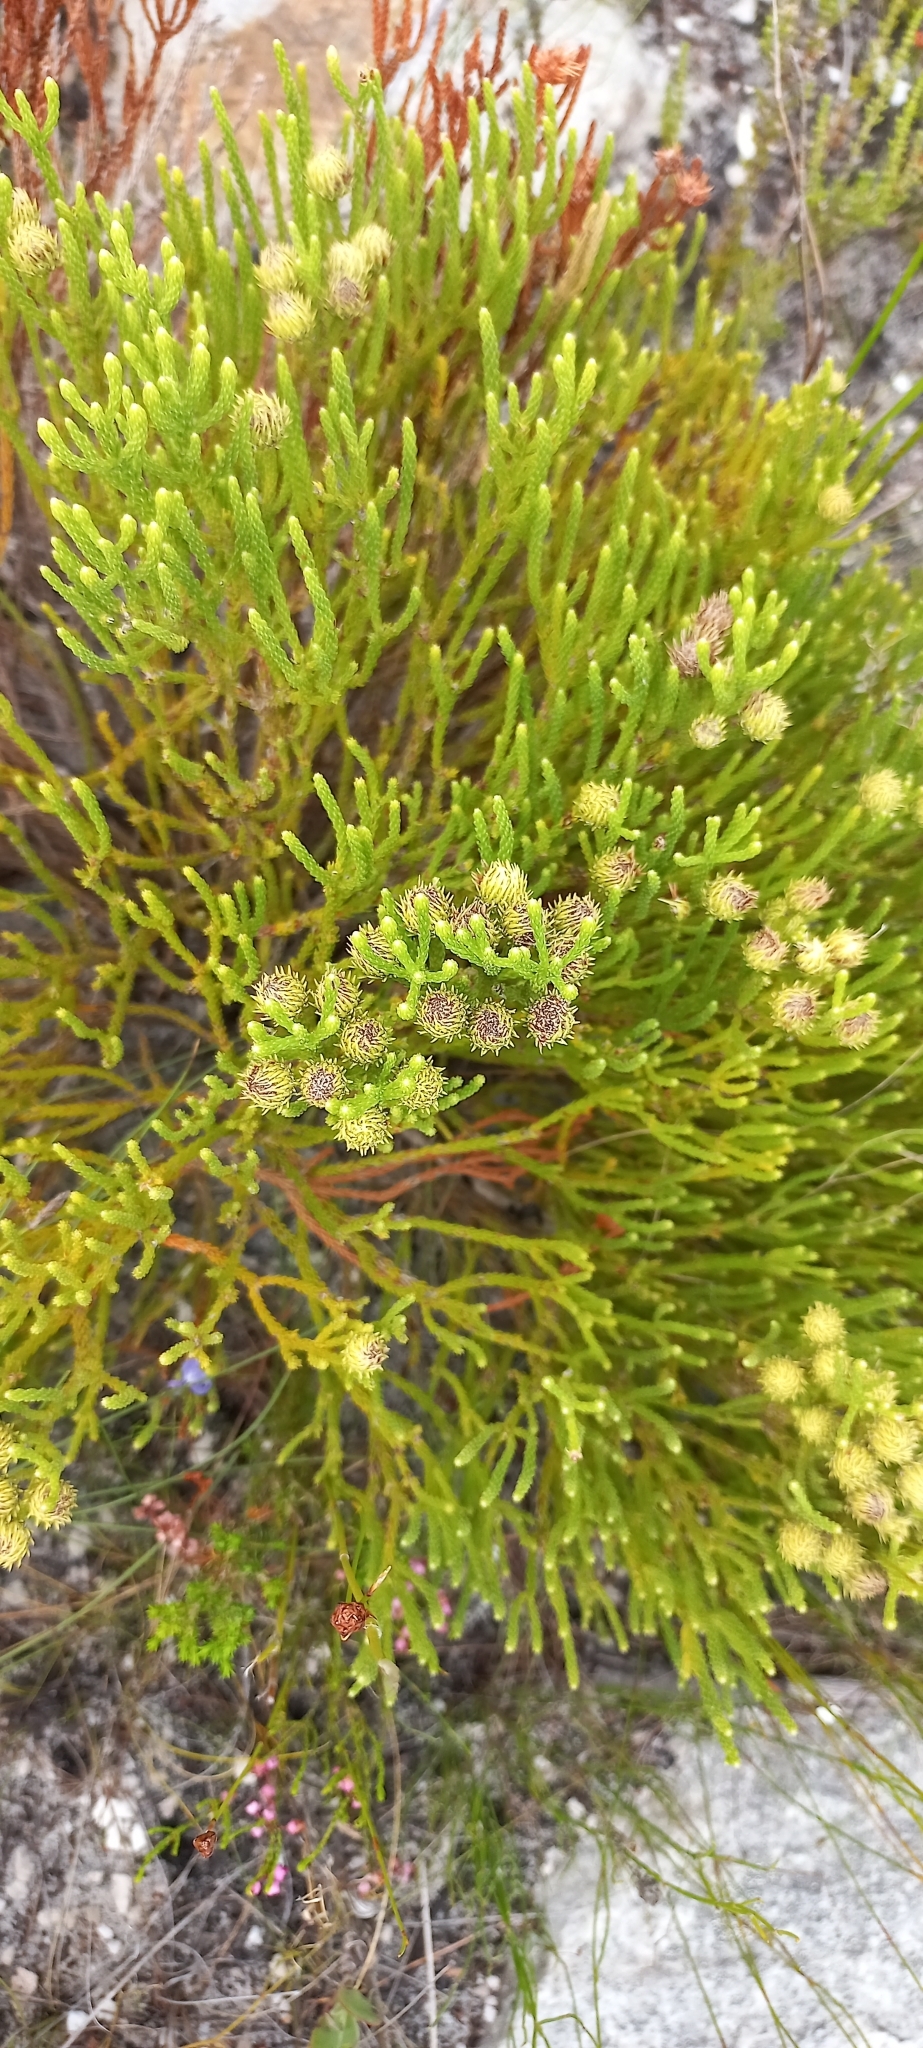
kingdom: Plantae
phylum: Tracheophyta
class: Magnoliopsida
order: Bruniales
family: Bruniaceae
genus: Brunia
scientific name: Brunia paleacea
